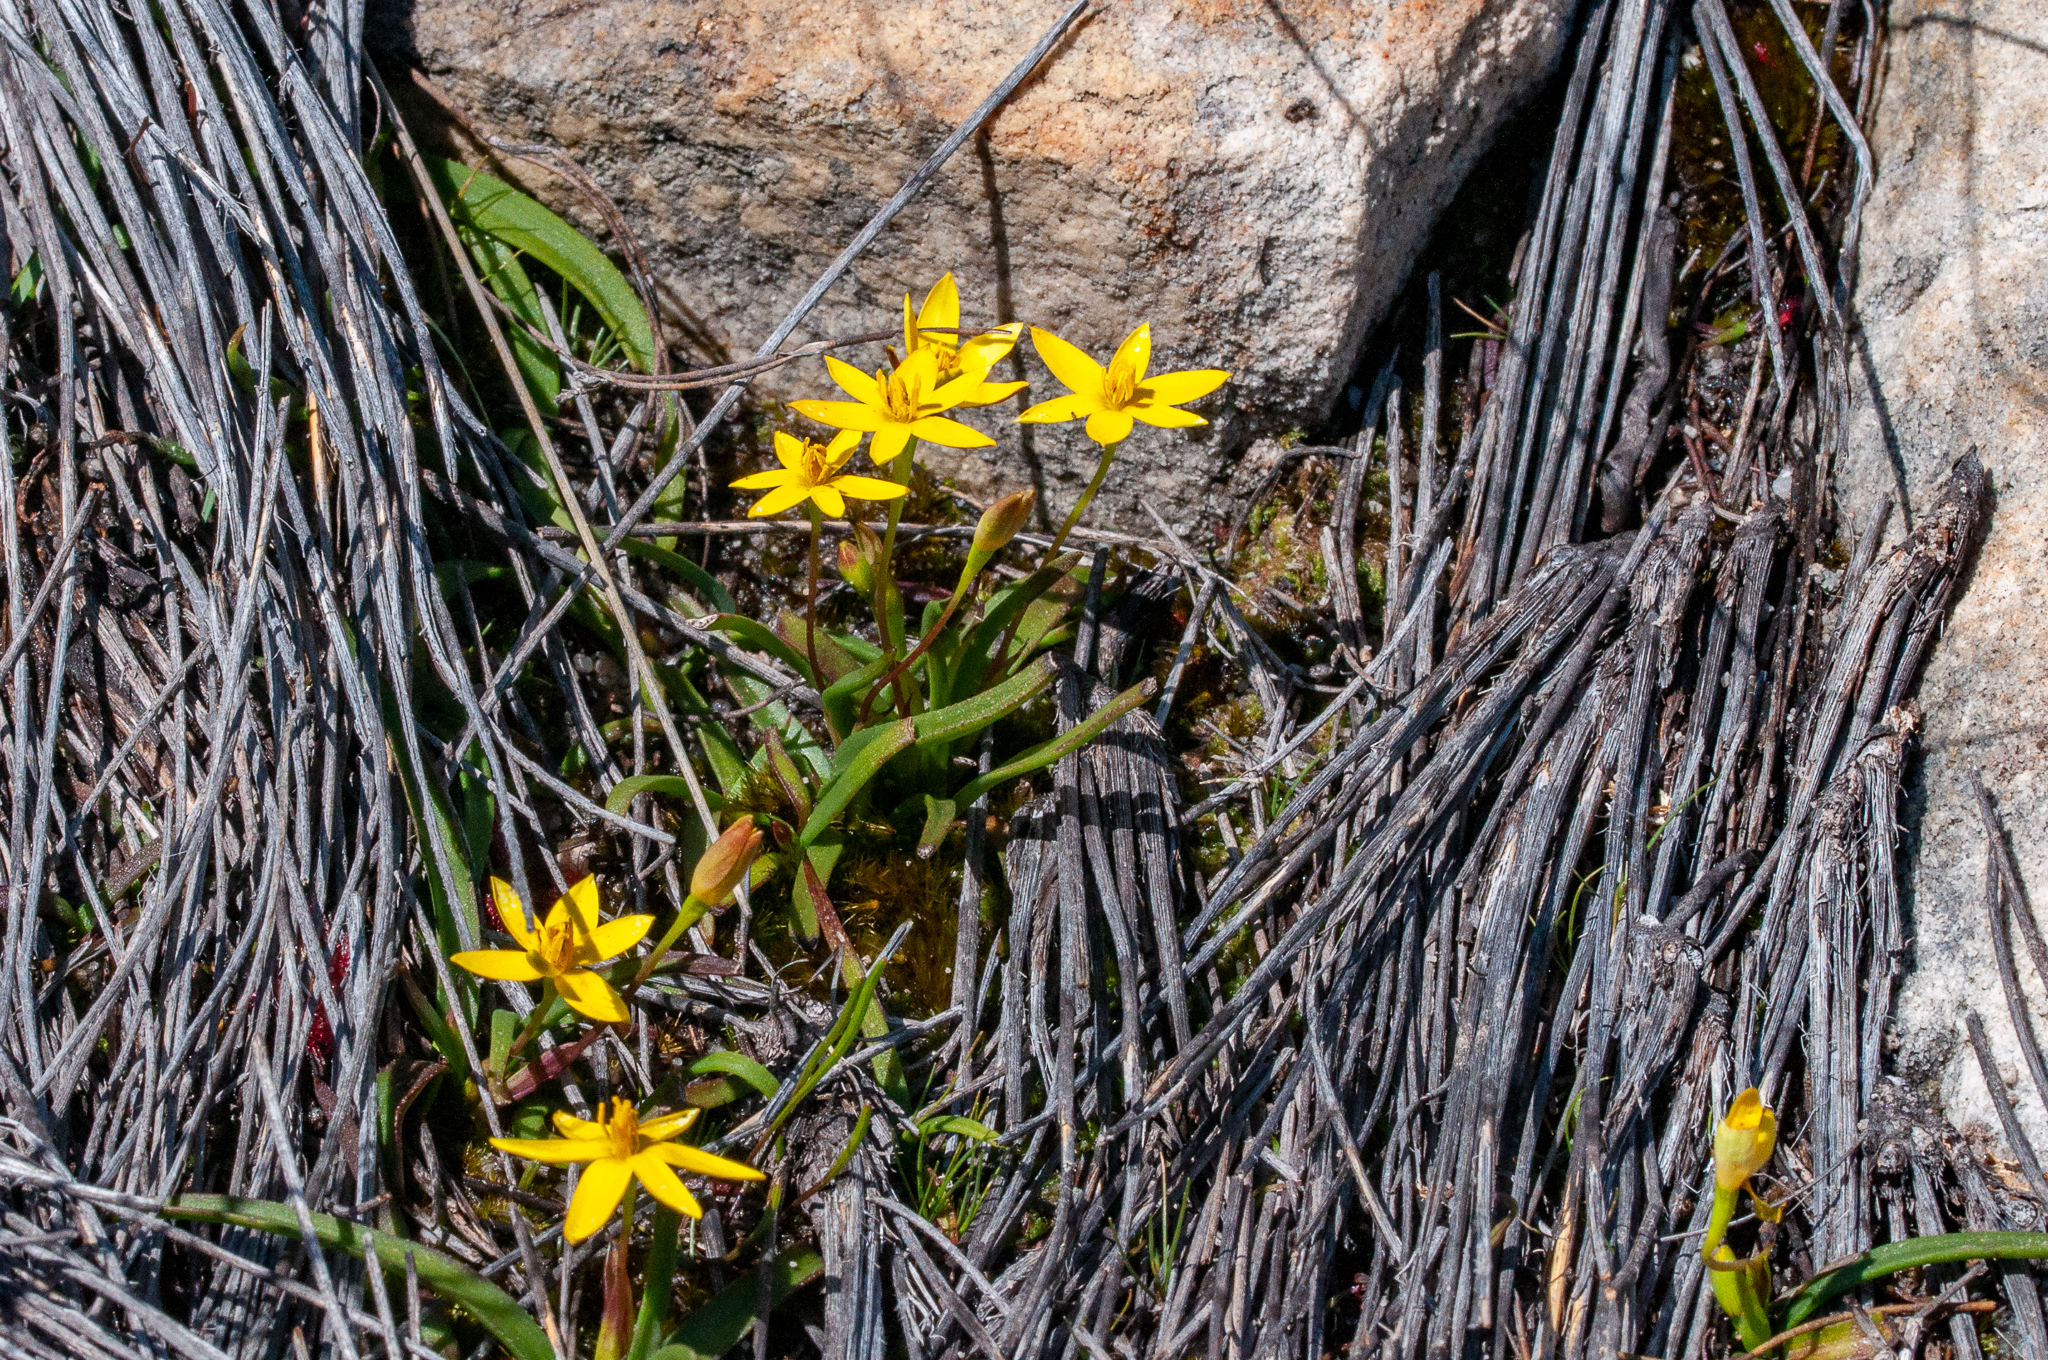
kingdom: Plantae
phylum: Tracheophyta
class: Liliopsida
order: Asparagales
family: Hypoxidaceae
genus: Pauridia
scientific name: Pauridia monticola
